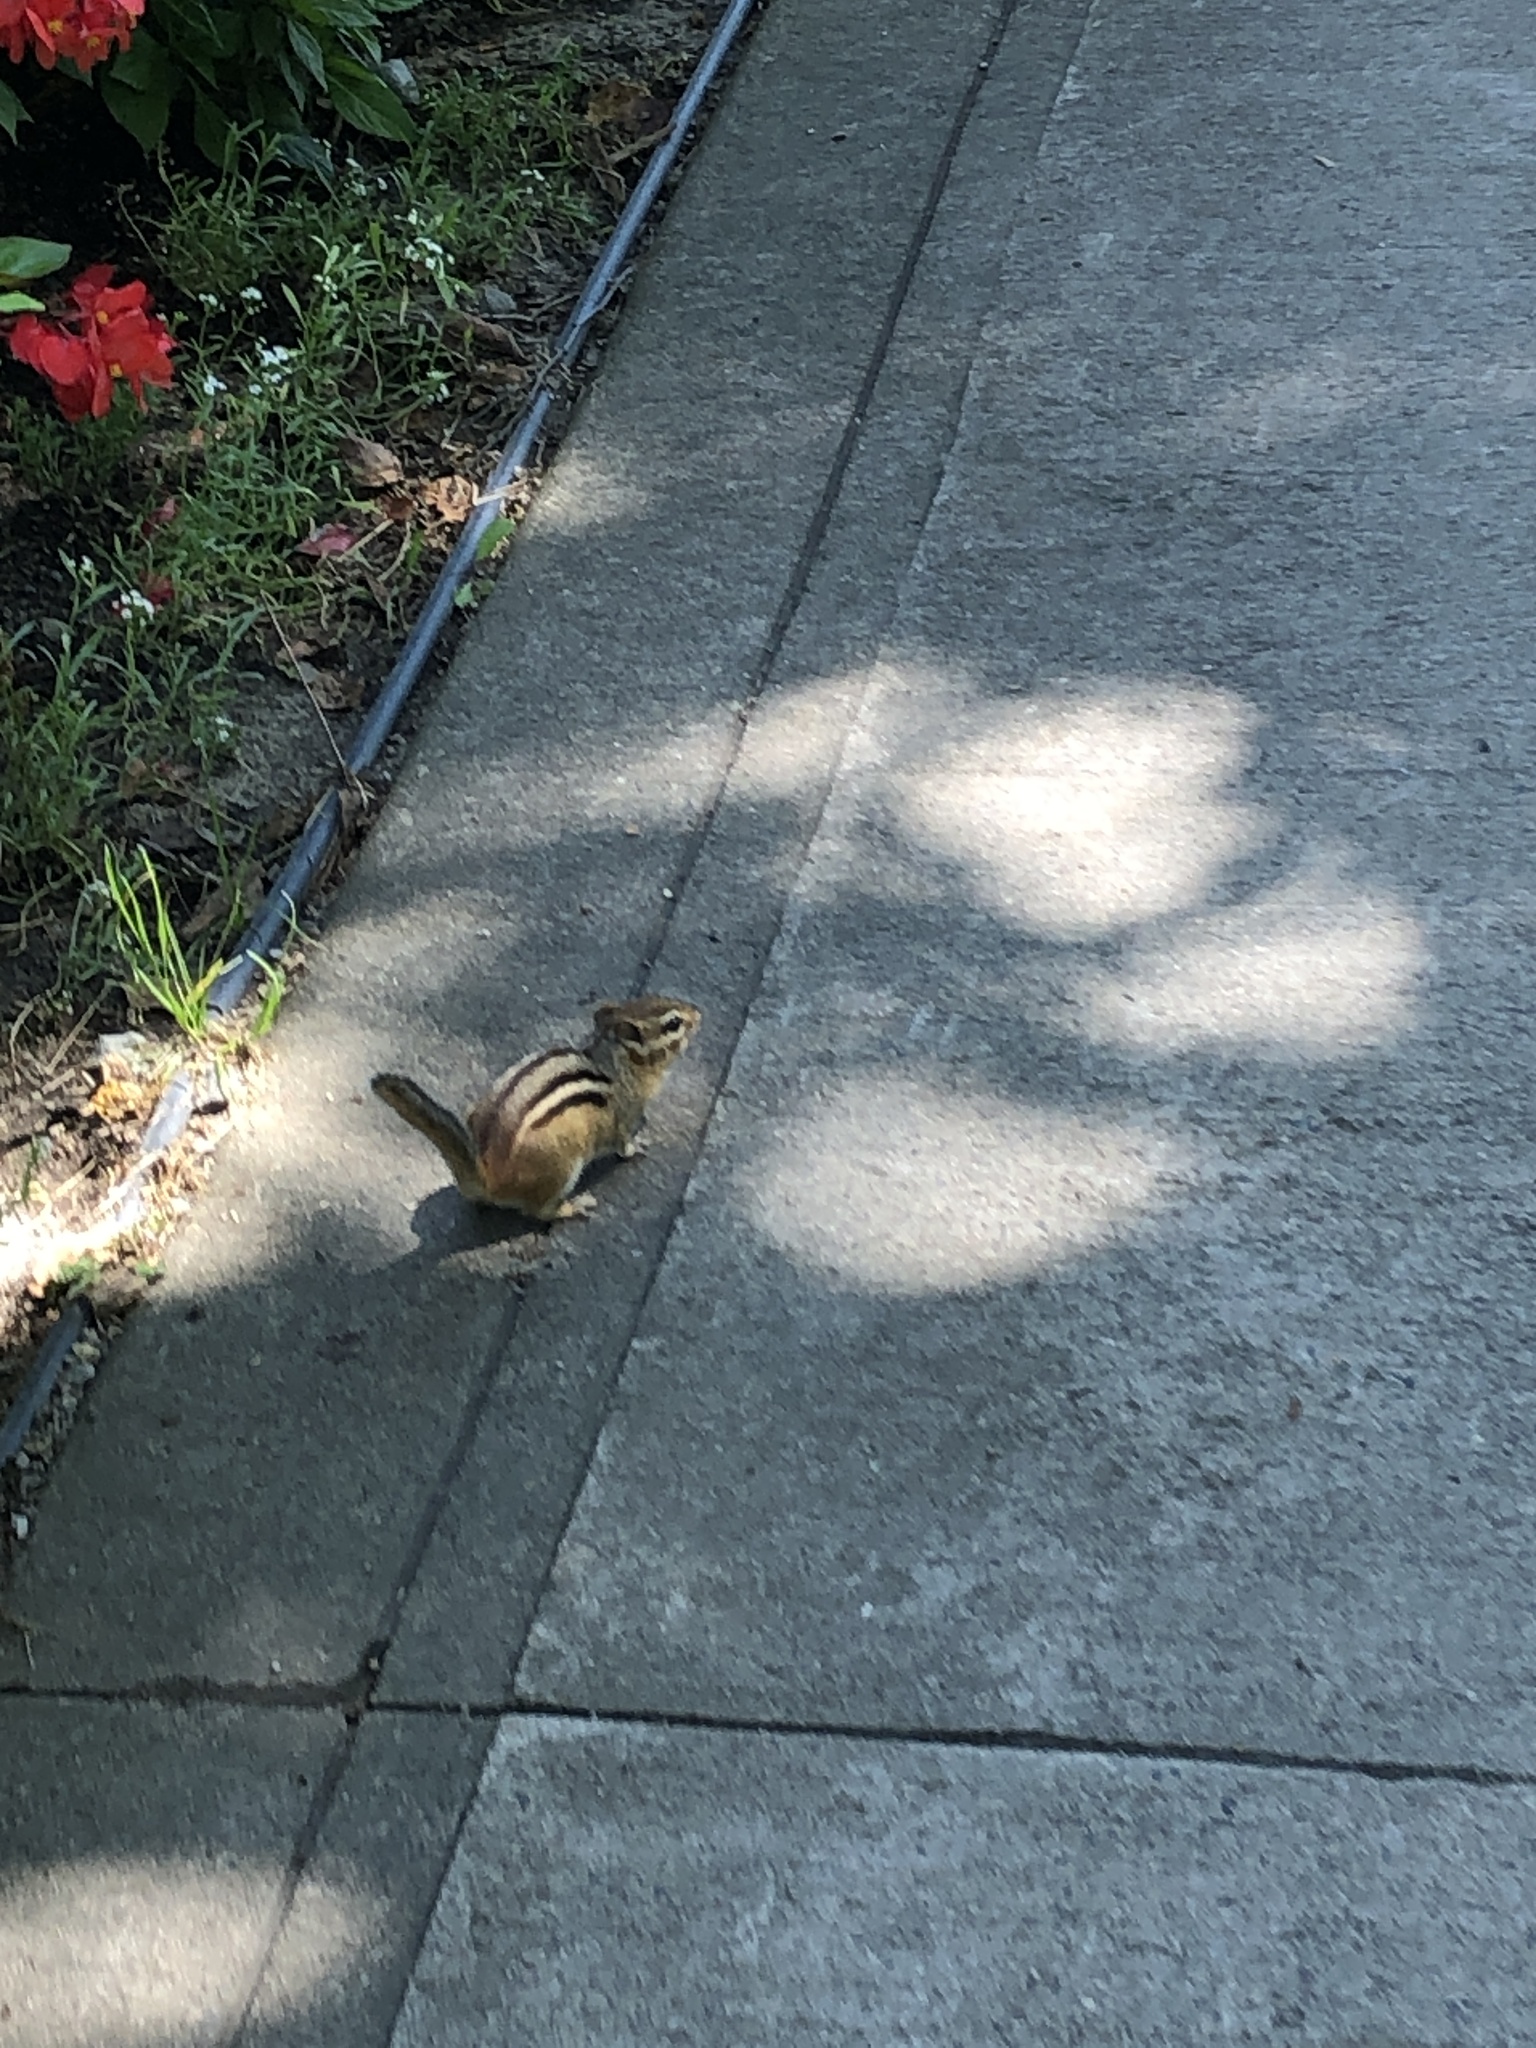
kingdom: Animalia
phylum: Chordata
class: Mammalia
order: Rodentia
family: Sciuridae
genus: Tamias
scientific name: Tamias striatus
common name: Eastern chipmunk
